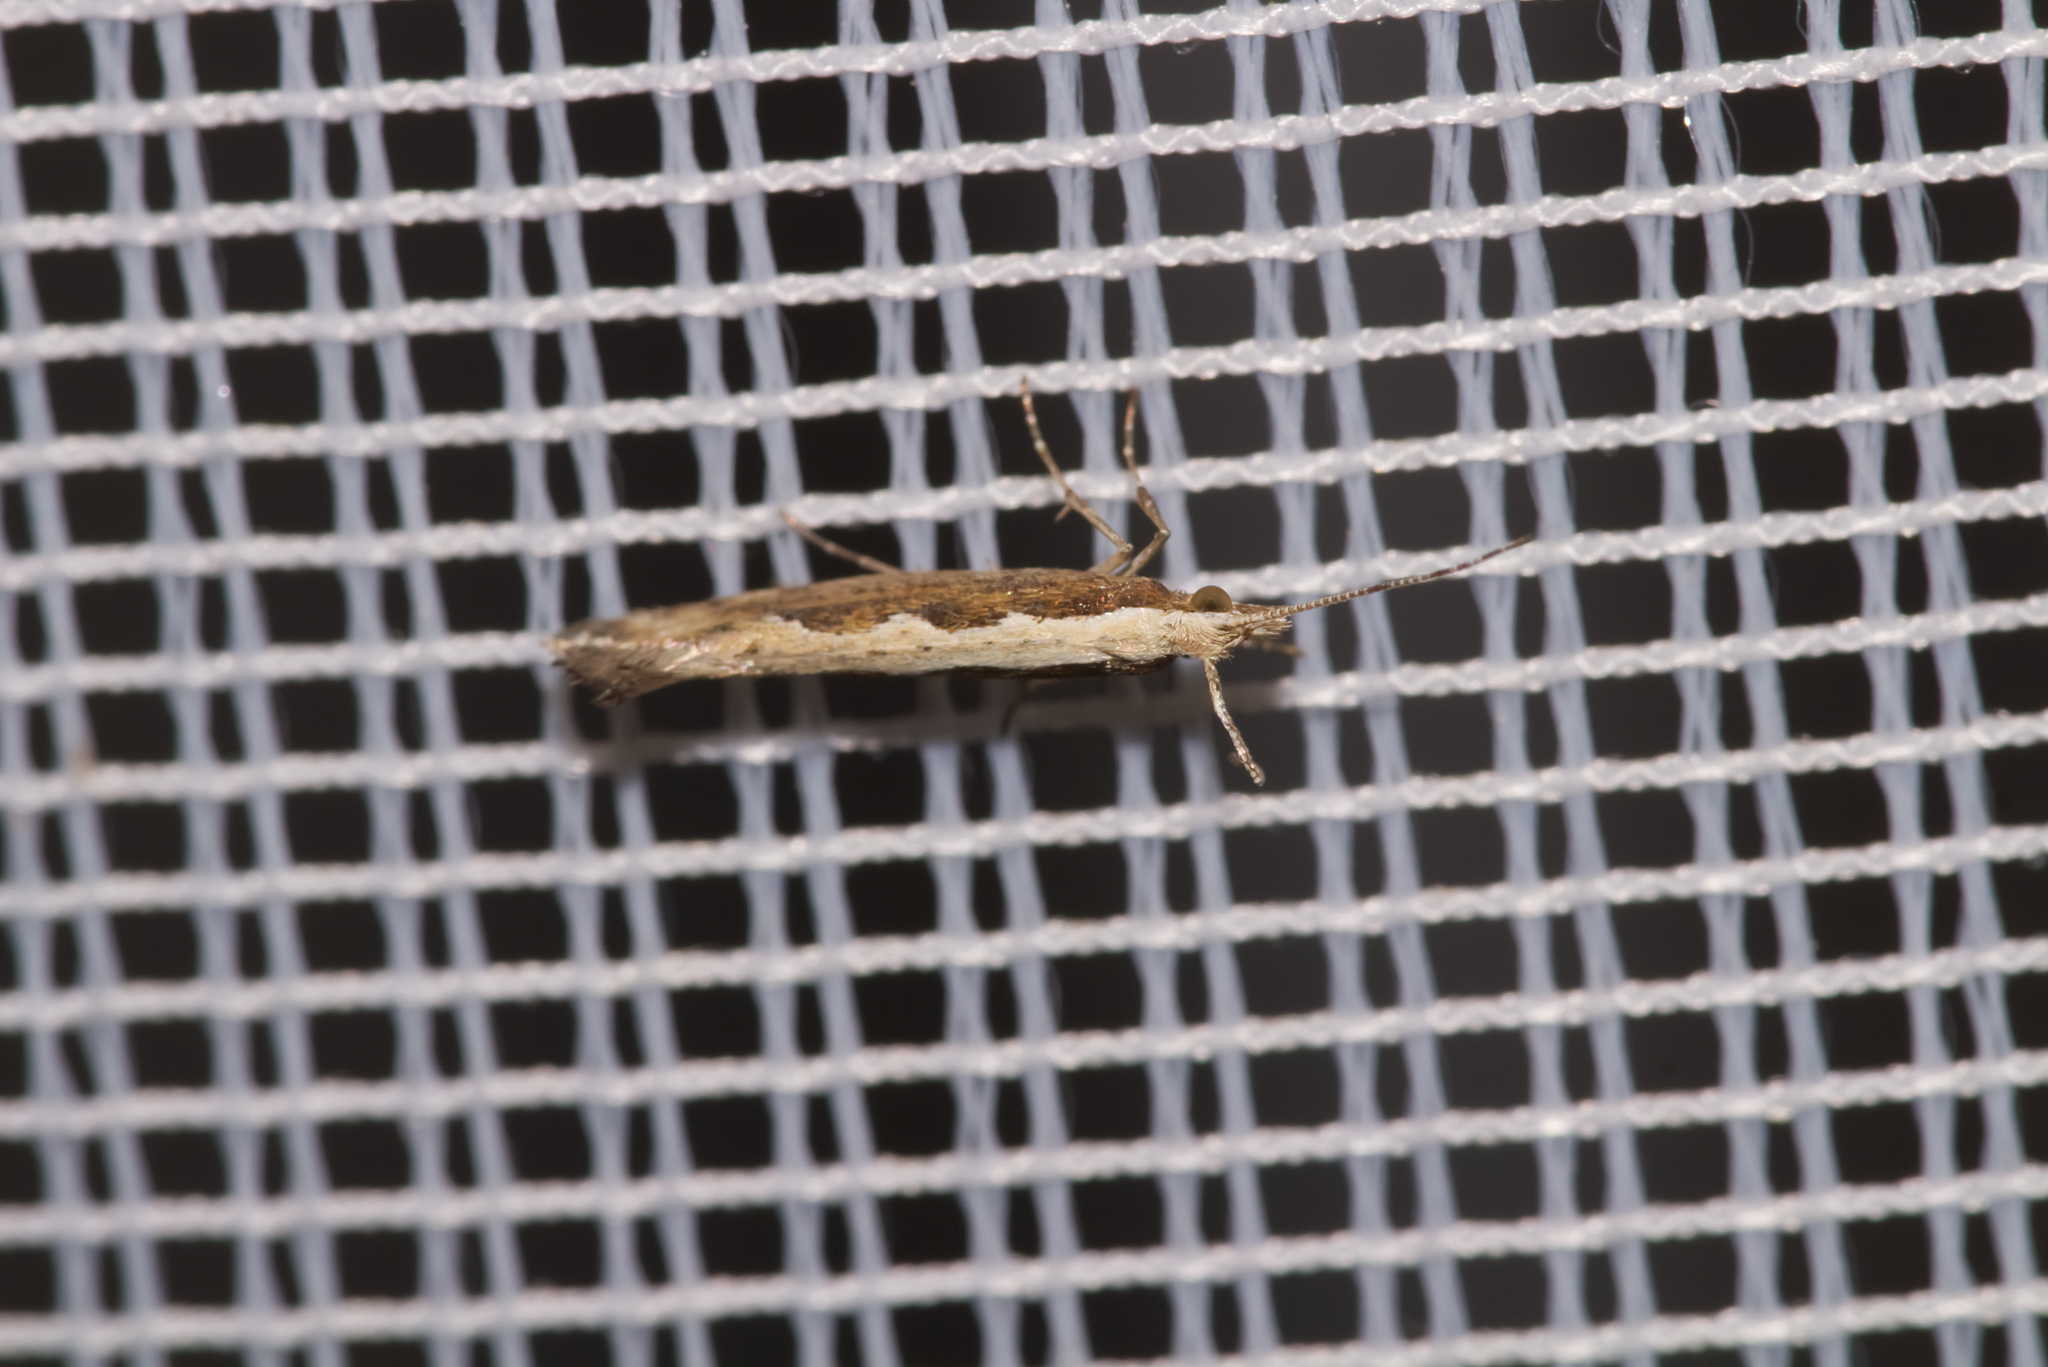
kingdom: Animalia
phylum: Arthropoda
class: Insecta
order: Lepidoptera
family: Plutellidae
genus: Plutella
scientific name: Plutella xylostella
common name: Diamond-back moth
